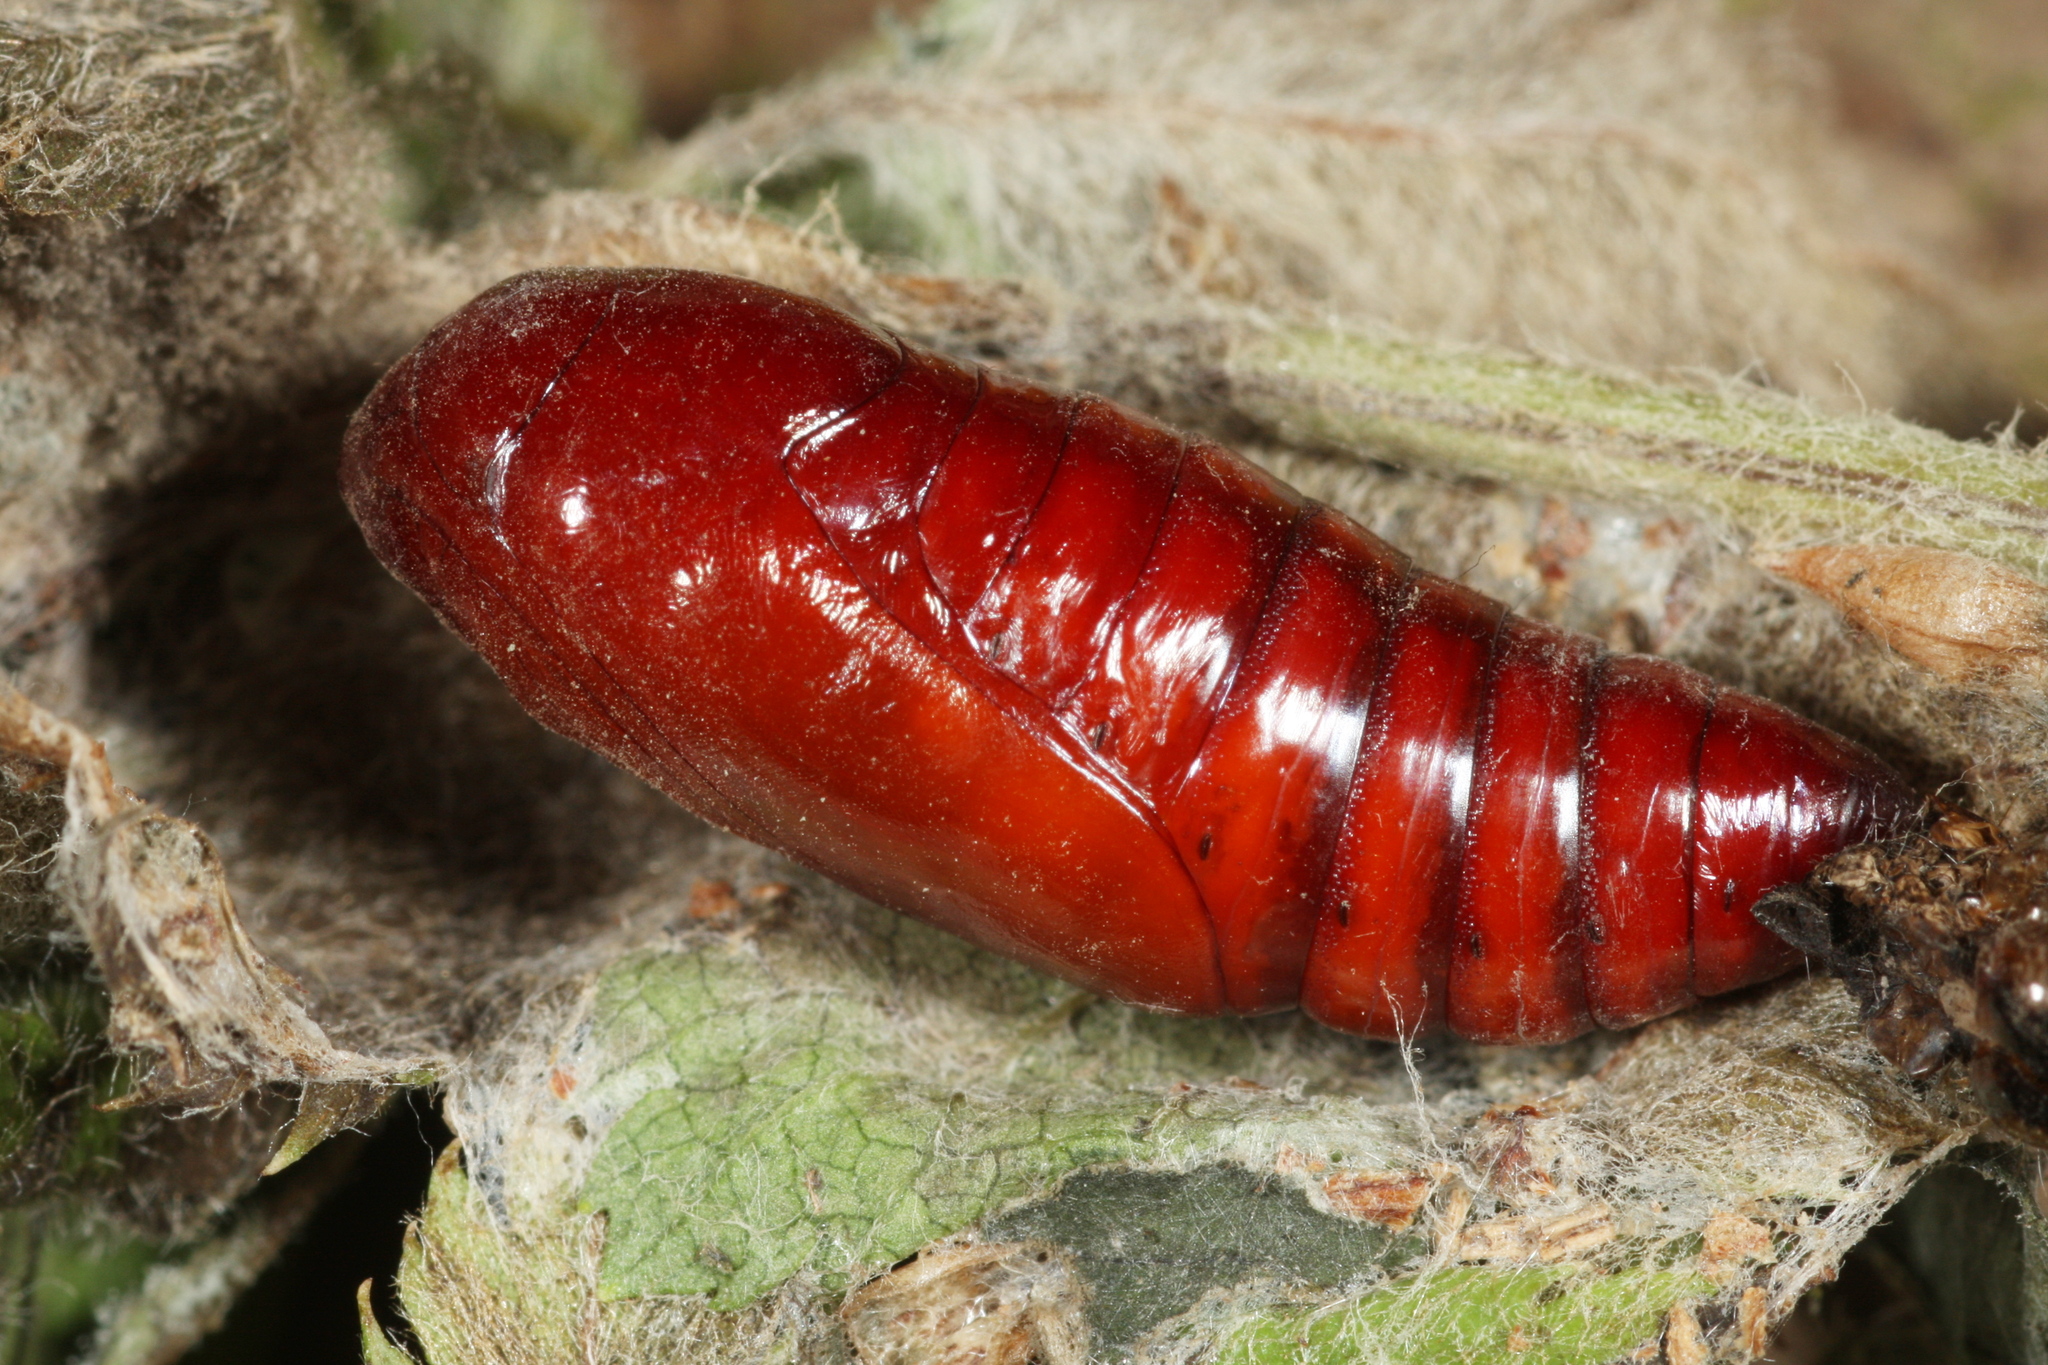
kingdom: Animalia
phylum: Arthropoda
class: Insecta
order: Lepidoptera
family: Noctuidae
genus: Diarsia
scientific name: Diarsia brunnea
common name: Purple clay
